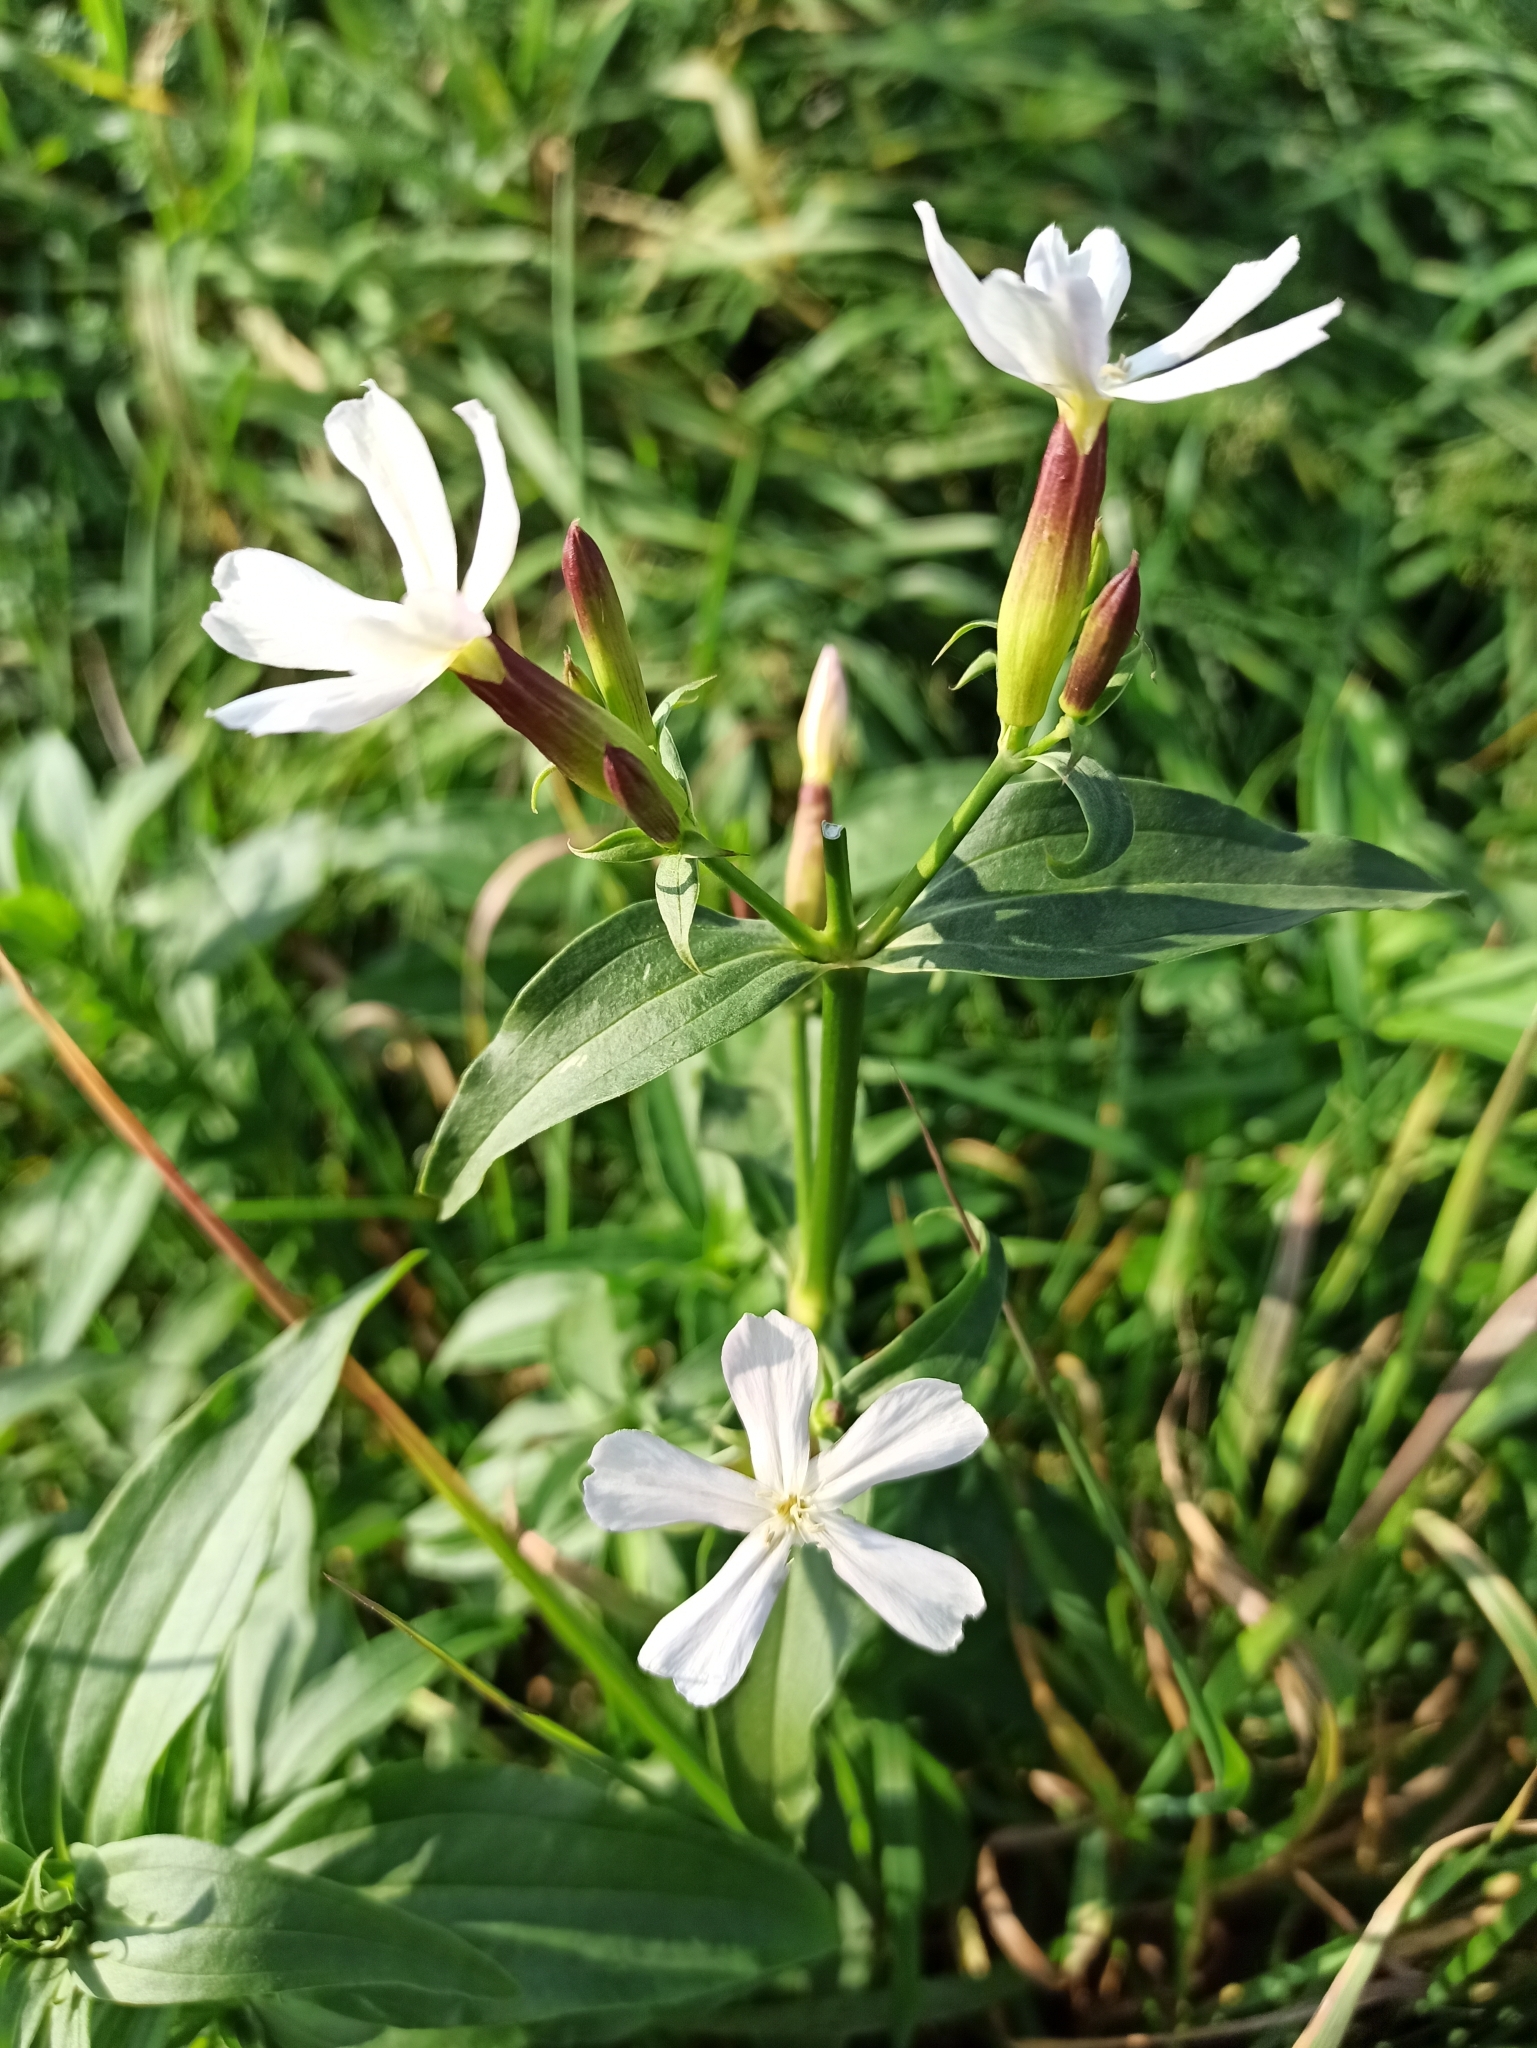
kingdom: Plantae
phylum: Tracheophyta
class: Magnoliopsida
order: Caryophyllales
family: Caryophyllaceae
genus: Saponaria
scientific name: Saponaria officinalis
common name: Soapwort
